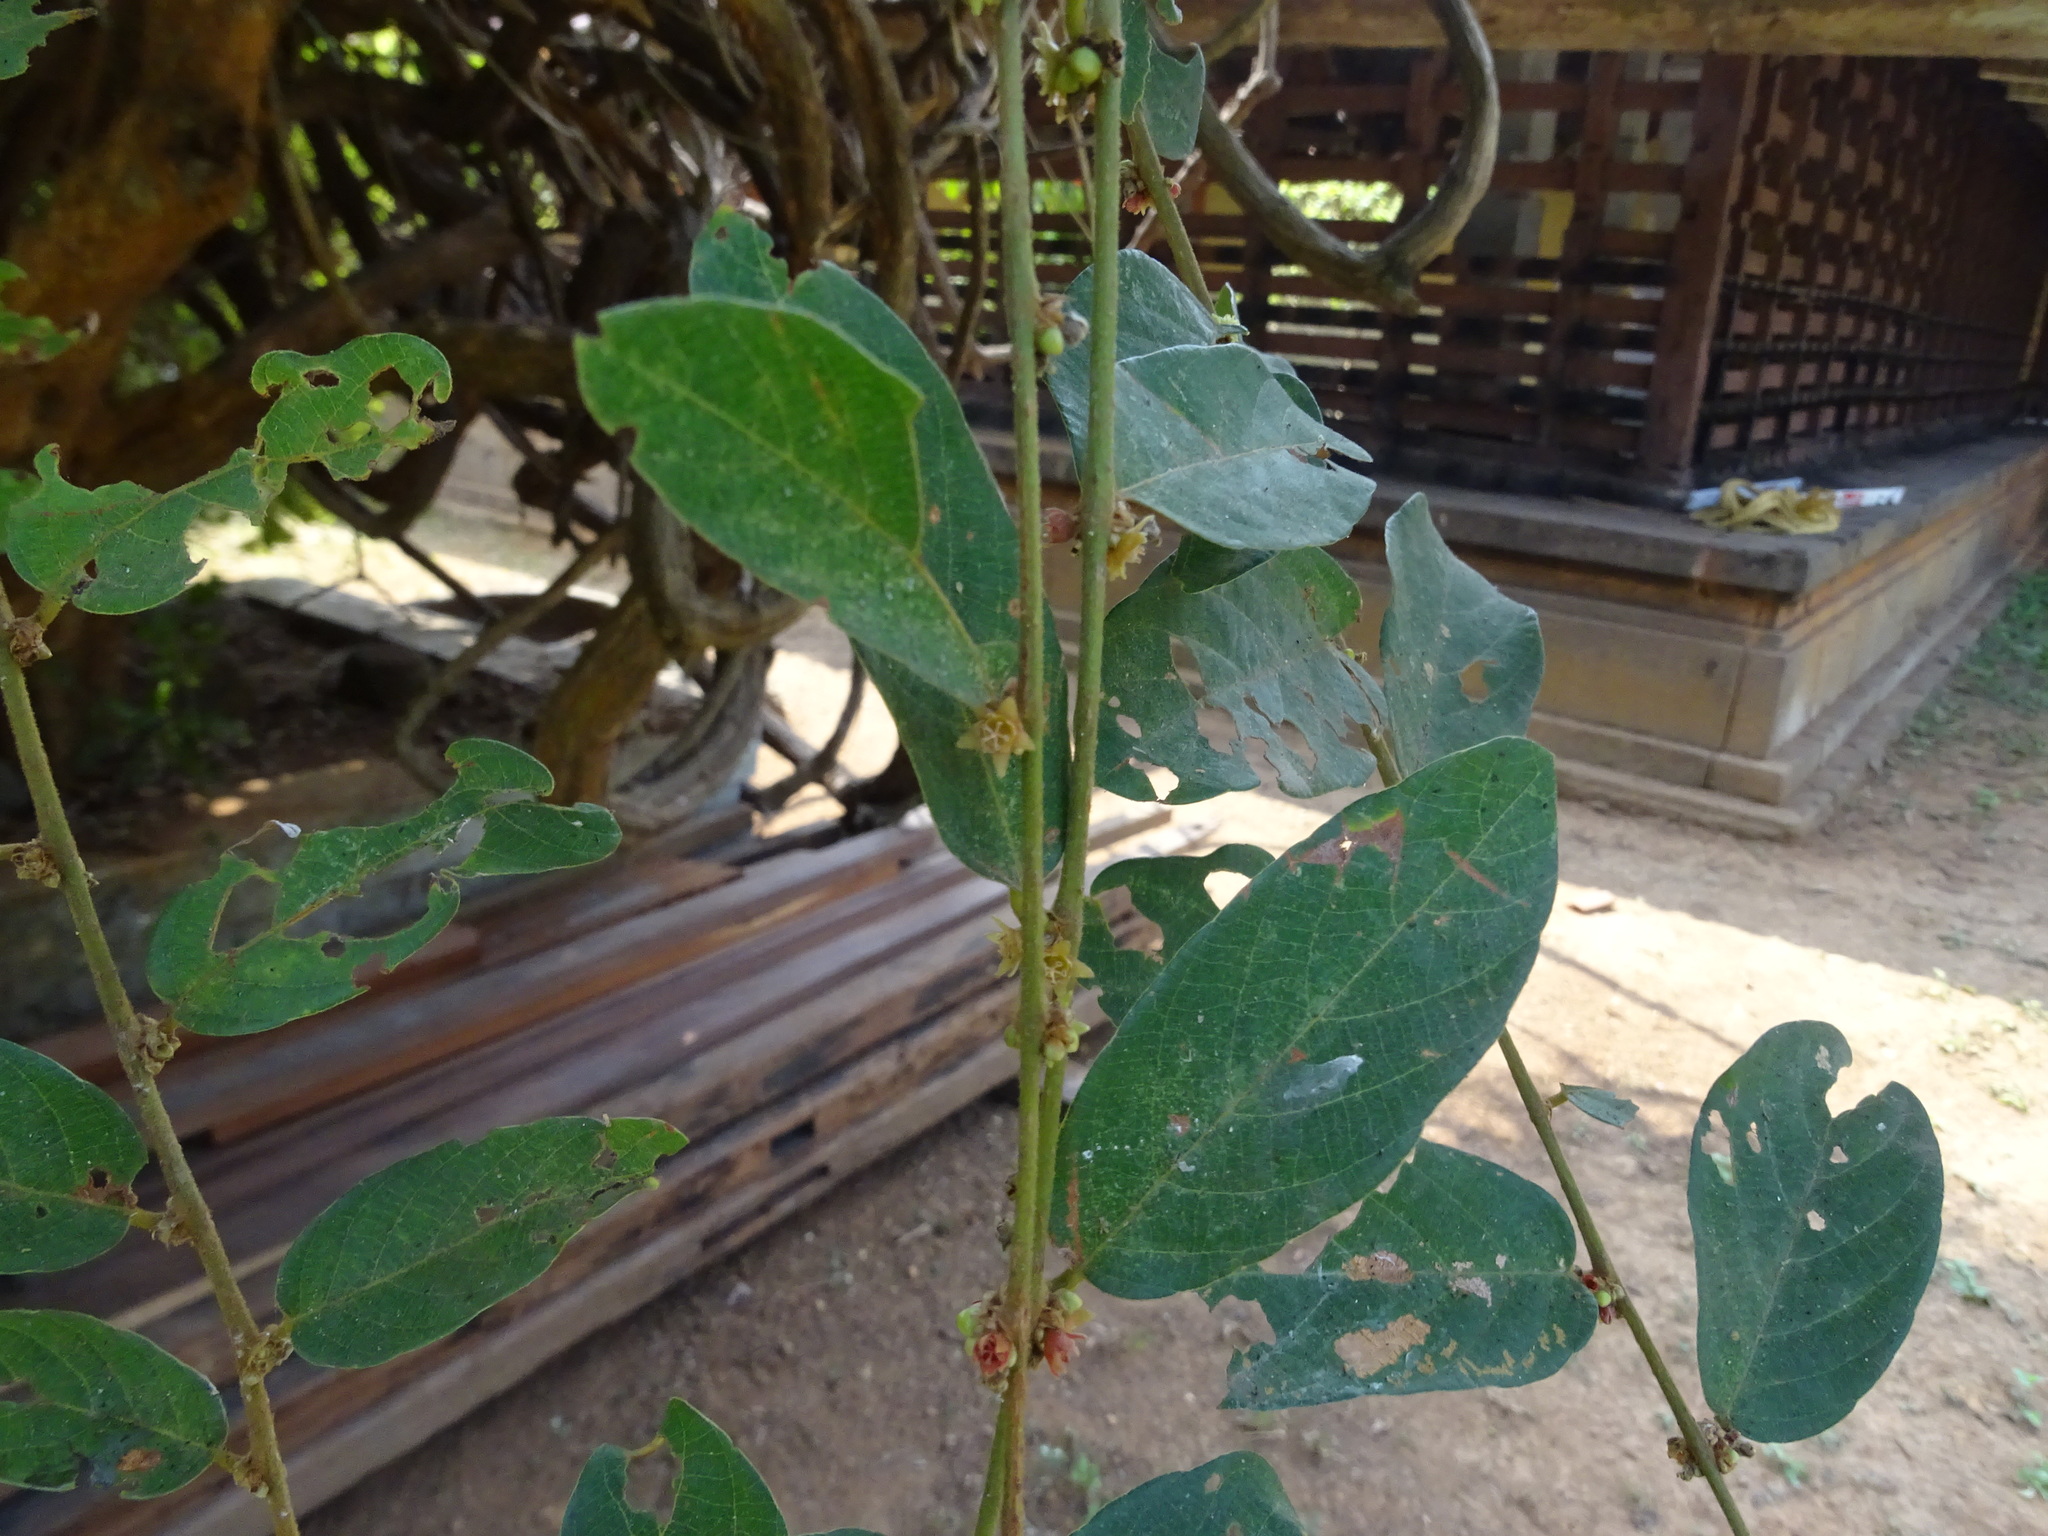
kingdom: Plantae
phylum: Tracheophyta
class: Magnoliopsida
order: Malpighiales
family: Phyllanthaceae
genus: Bridelia
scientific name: Bridelia stipularis
